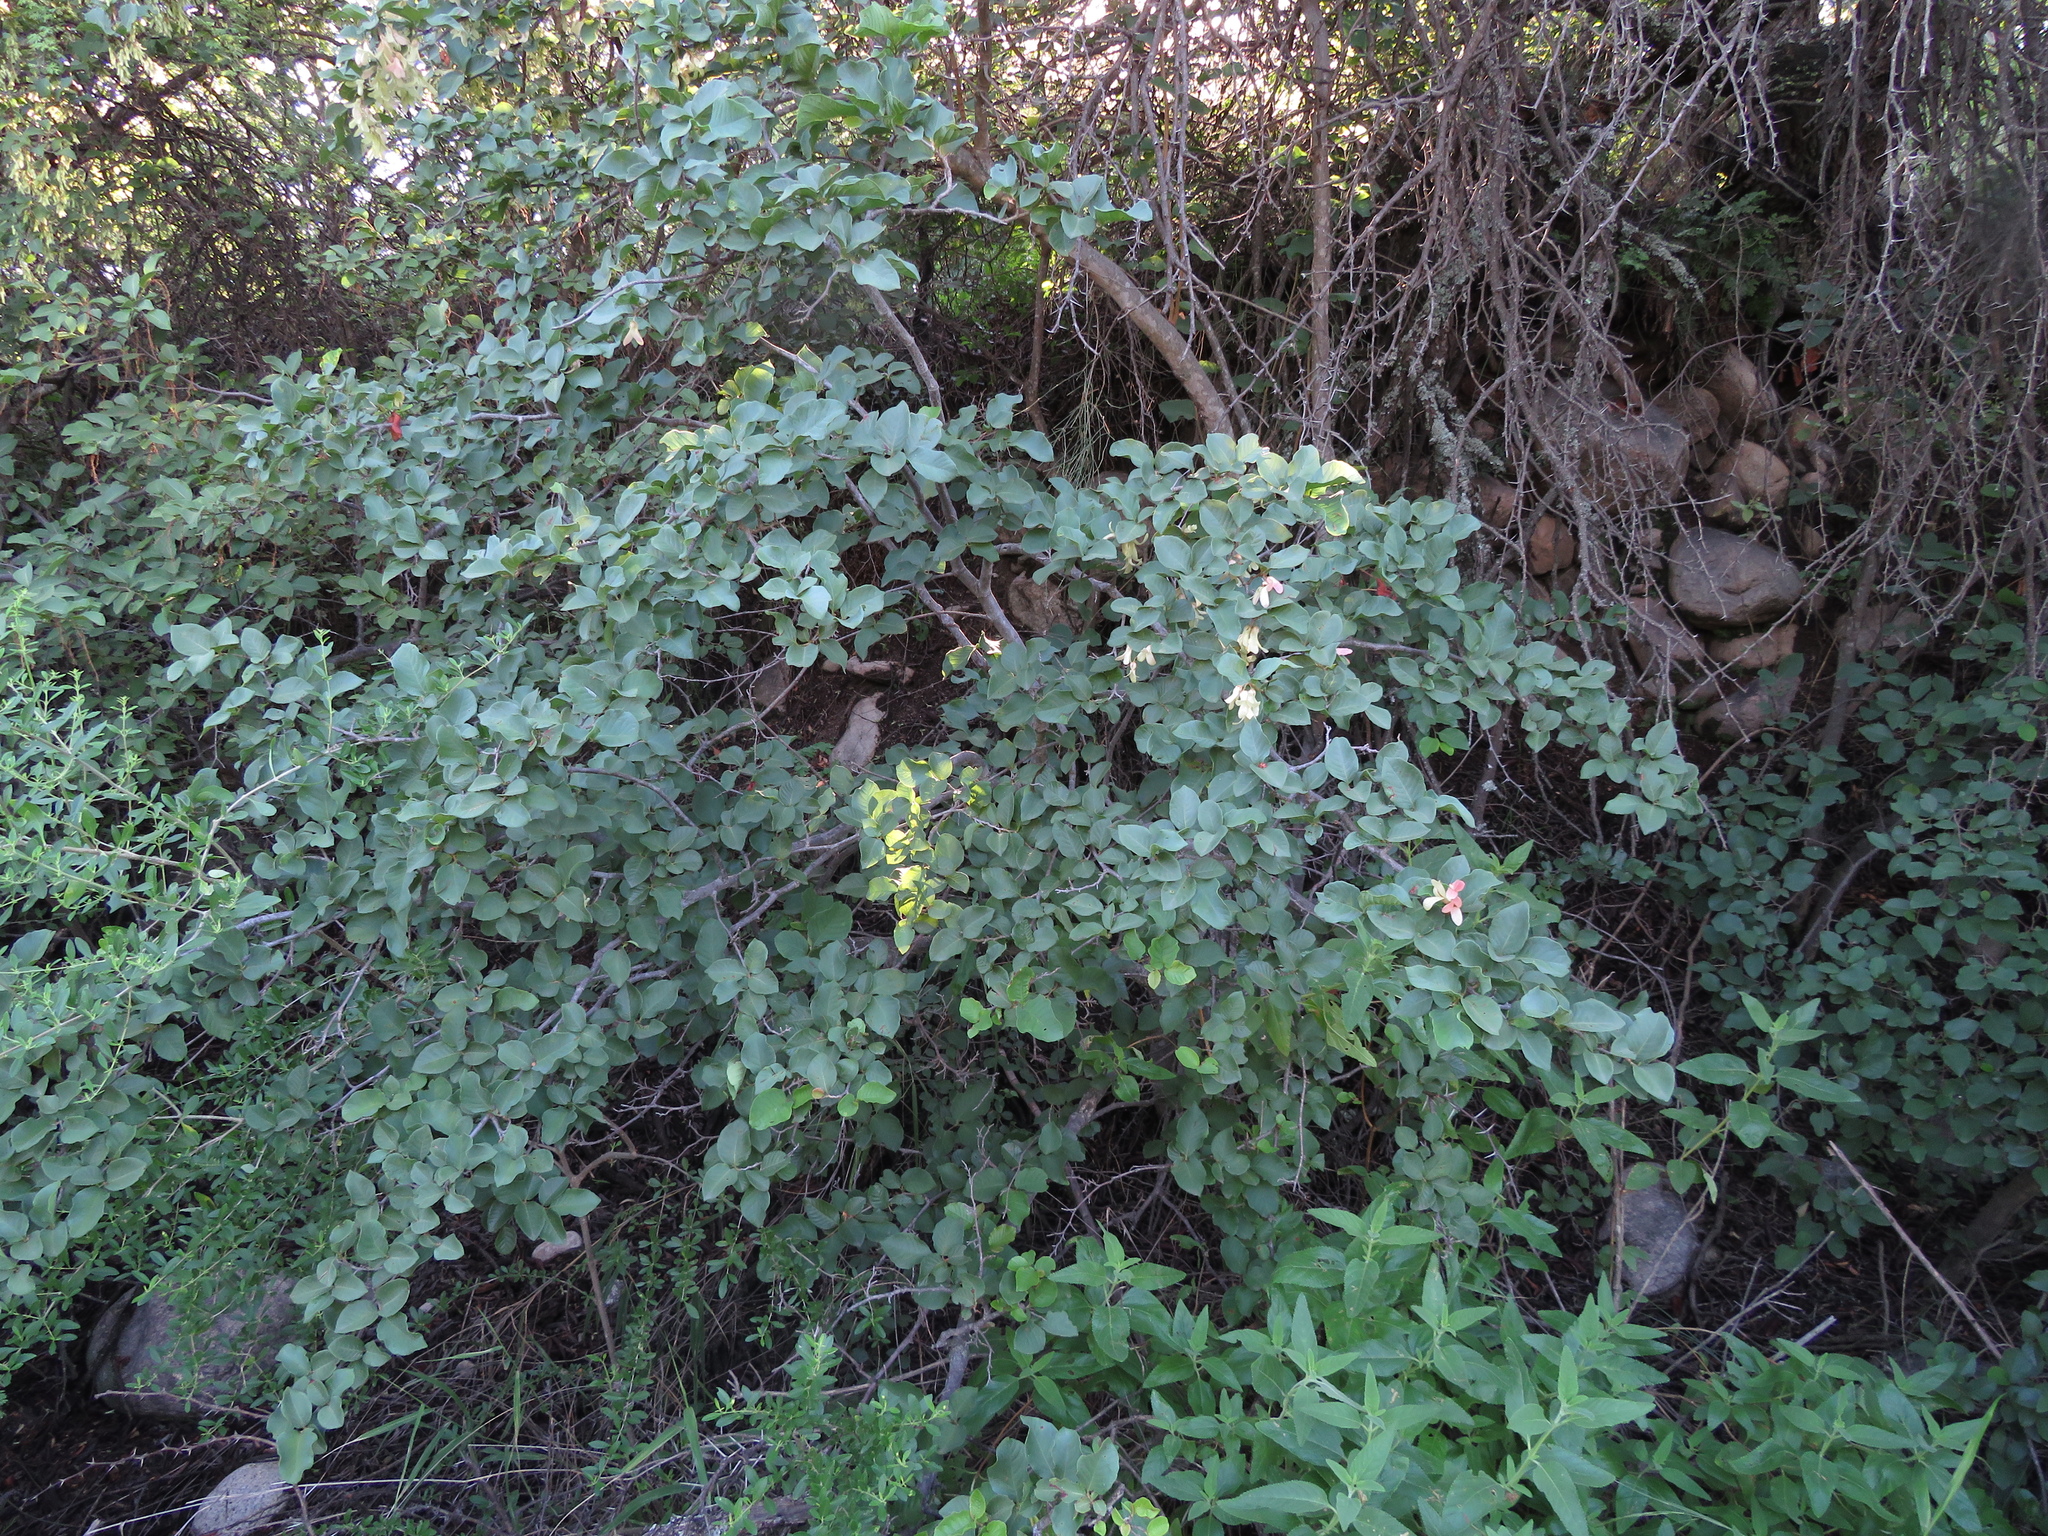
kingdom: Plantae
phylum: Tracheophyta
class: Magnoliopsida
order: Caryophyllales
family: Polygonaceae
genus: Ruprechtia
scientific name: Ruprechtia apetala
